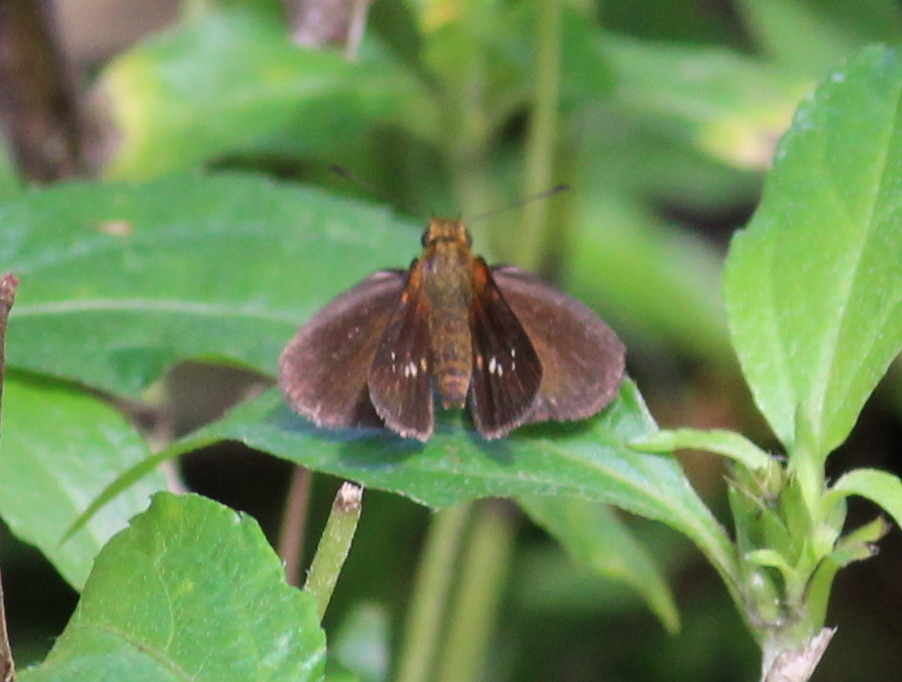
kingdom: Animalia
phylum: Arthropoda
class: Insecta
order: Lepidoptera
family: Hesperiidae
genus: Iambrix
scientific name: Iambrix salsala
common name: Chestnut bob
